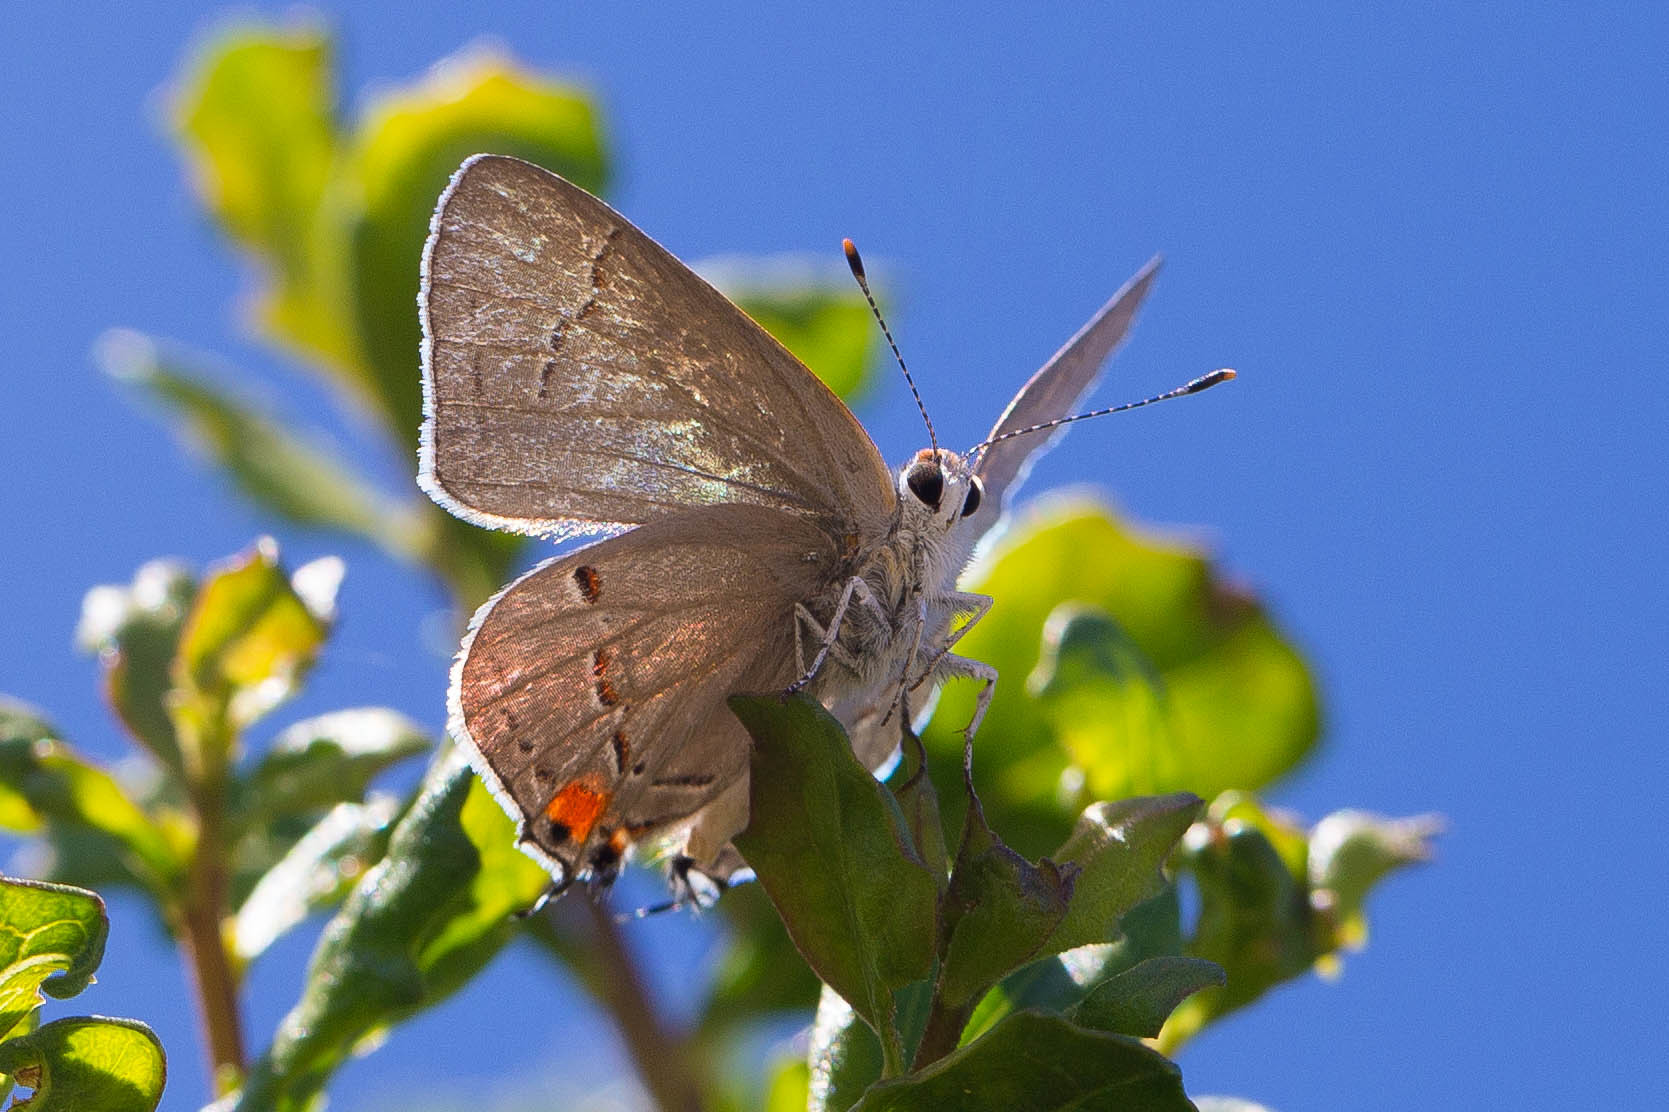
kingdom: Animalia
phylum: Arthropoda
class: Insecta
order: Lepidoptera
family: Lycaenidae
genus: Strymon
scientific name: Strymon melinus
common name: Gray hairstreak
